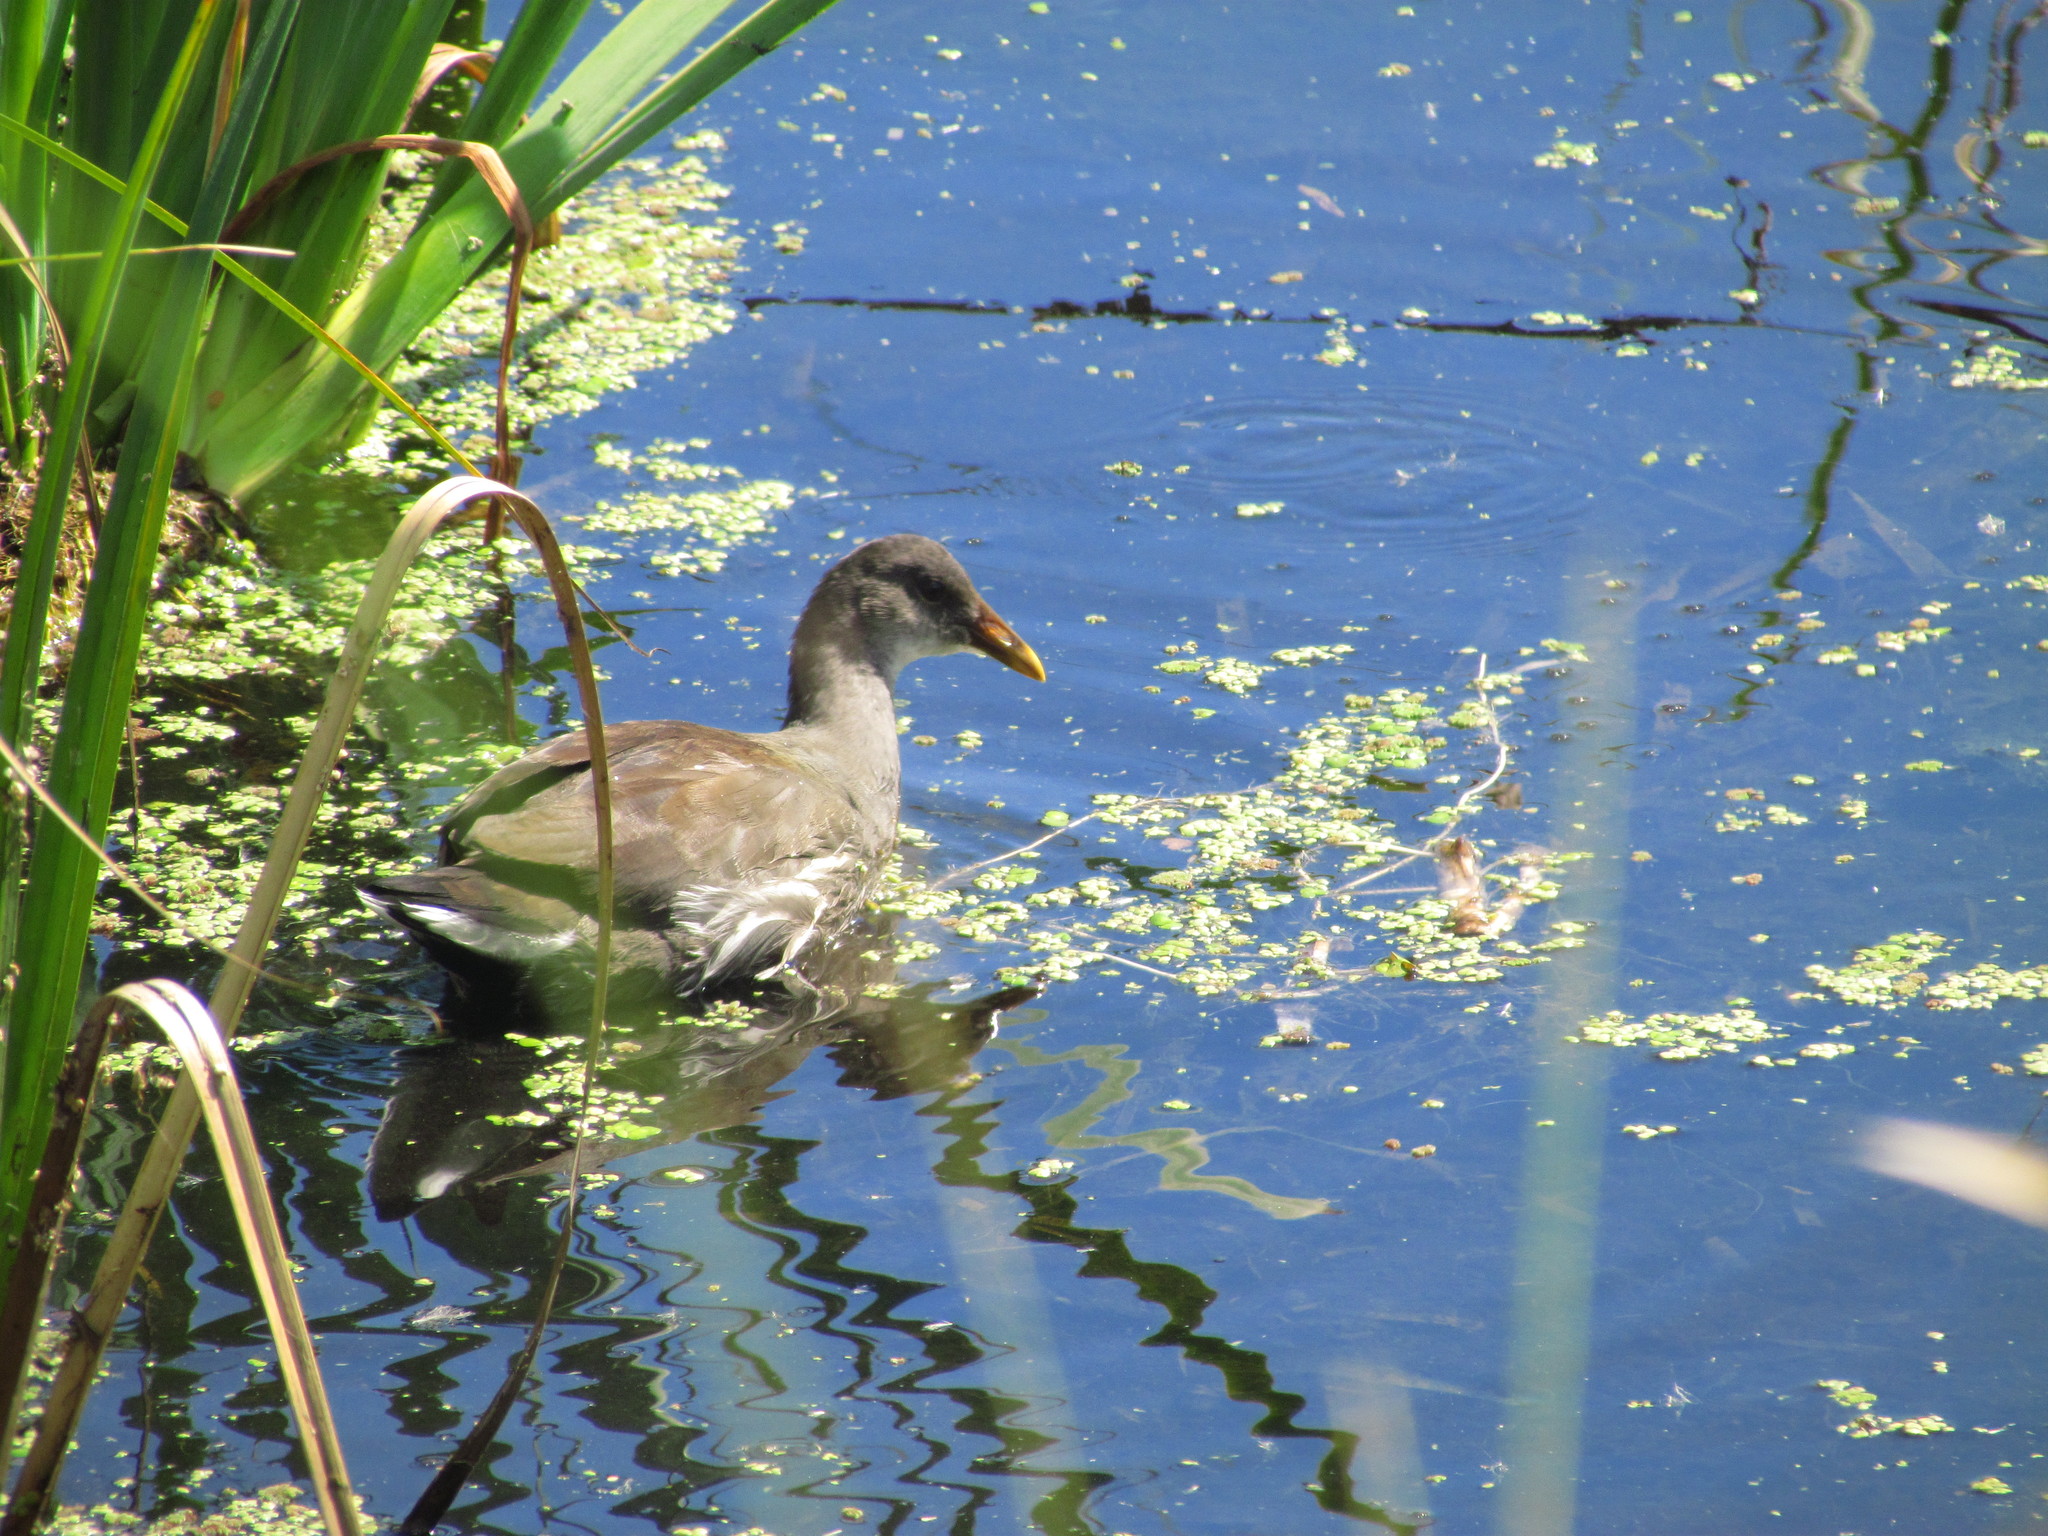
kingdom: Animalia
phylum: Chordata
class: Aves
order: Gruiformes
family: Rallidae
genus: Gallinula
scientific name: Gallinula chloropus
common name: Common moorhen
